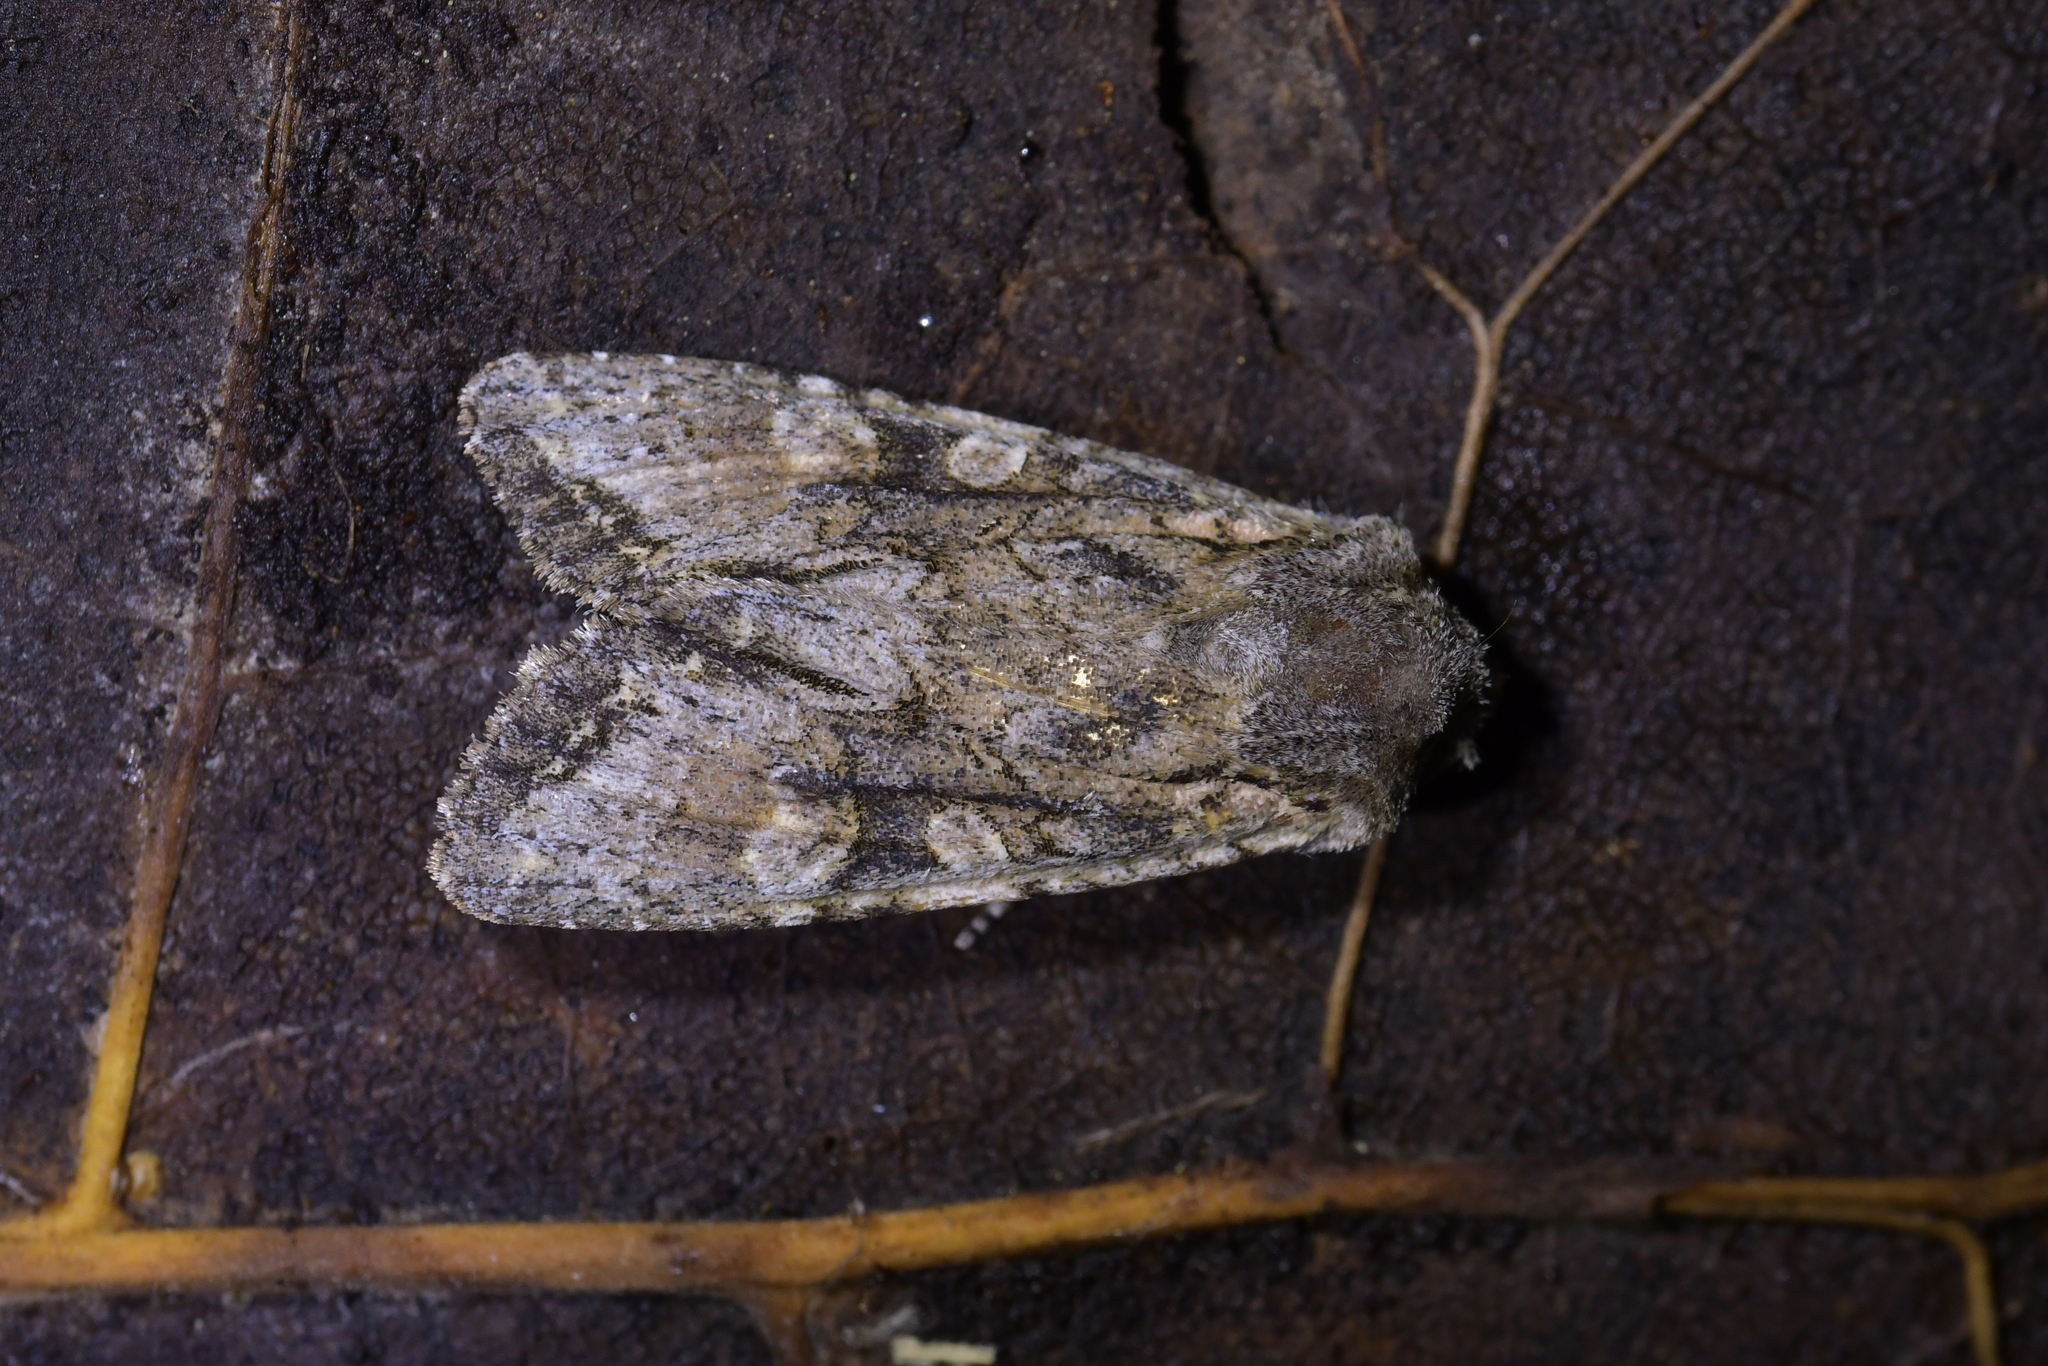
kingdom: Animalia
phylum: Arthropoda
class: Insecta
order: Lepidoptera
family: Noctuidae
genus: Ichneutica
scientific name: Ichneutica mutans
